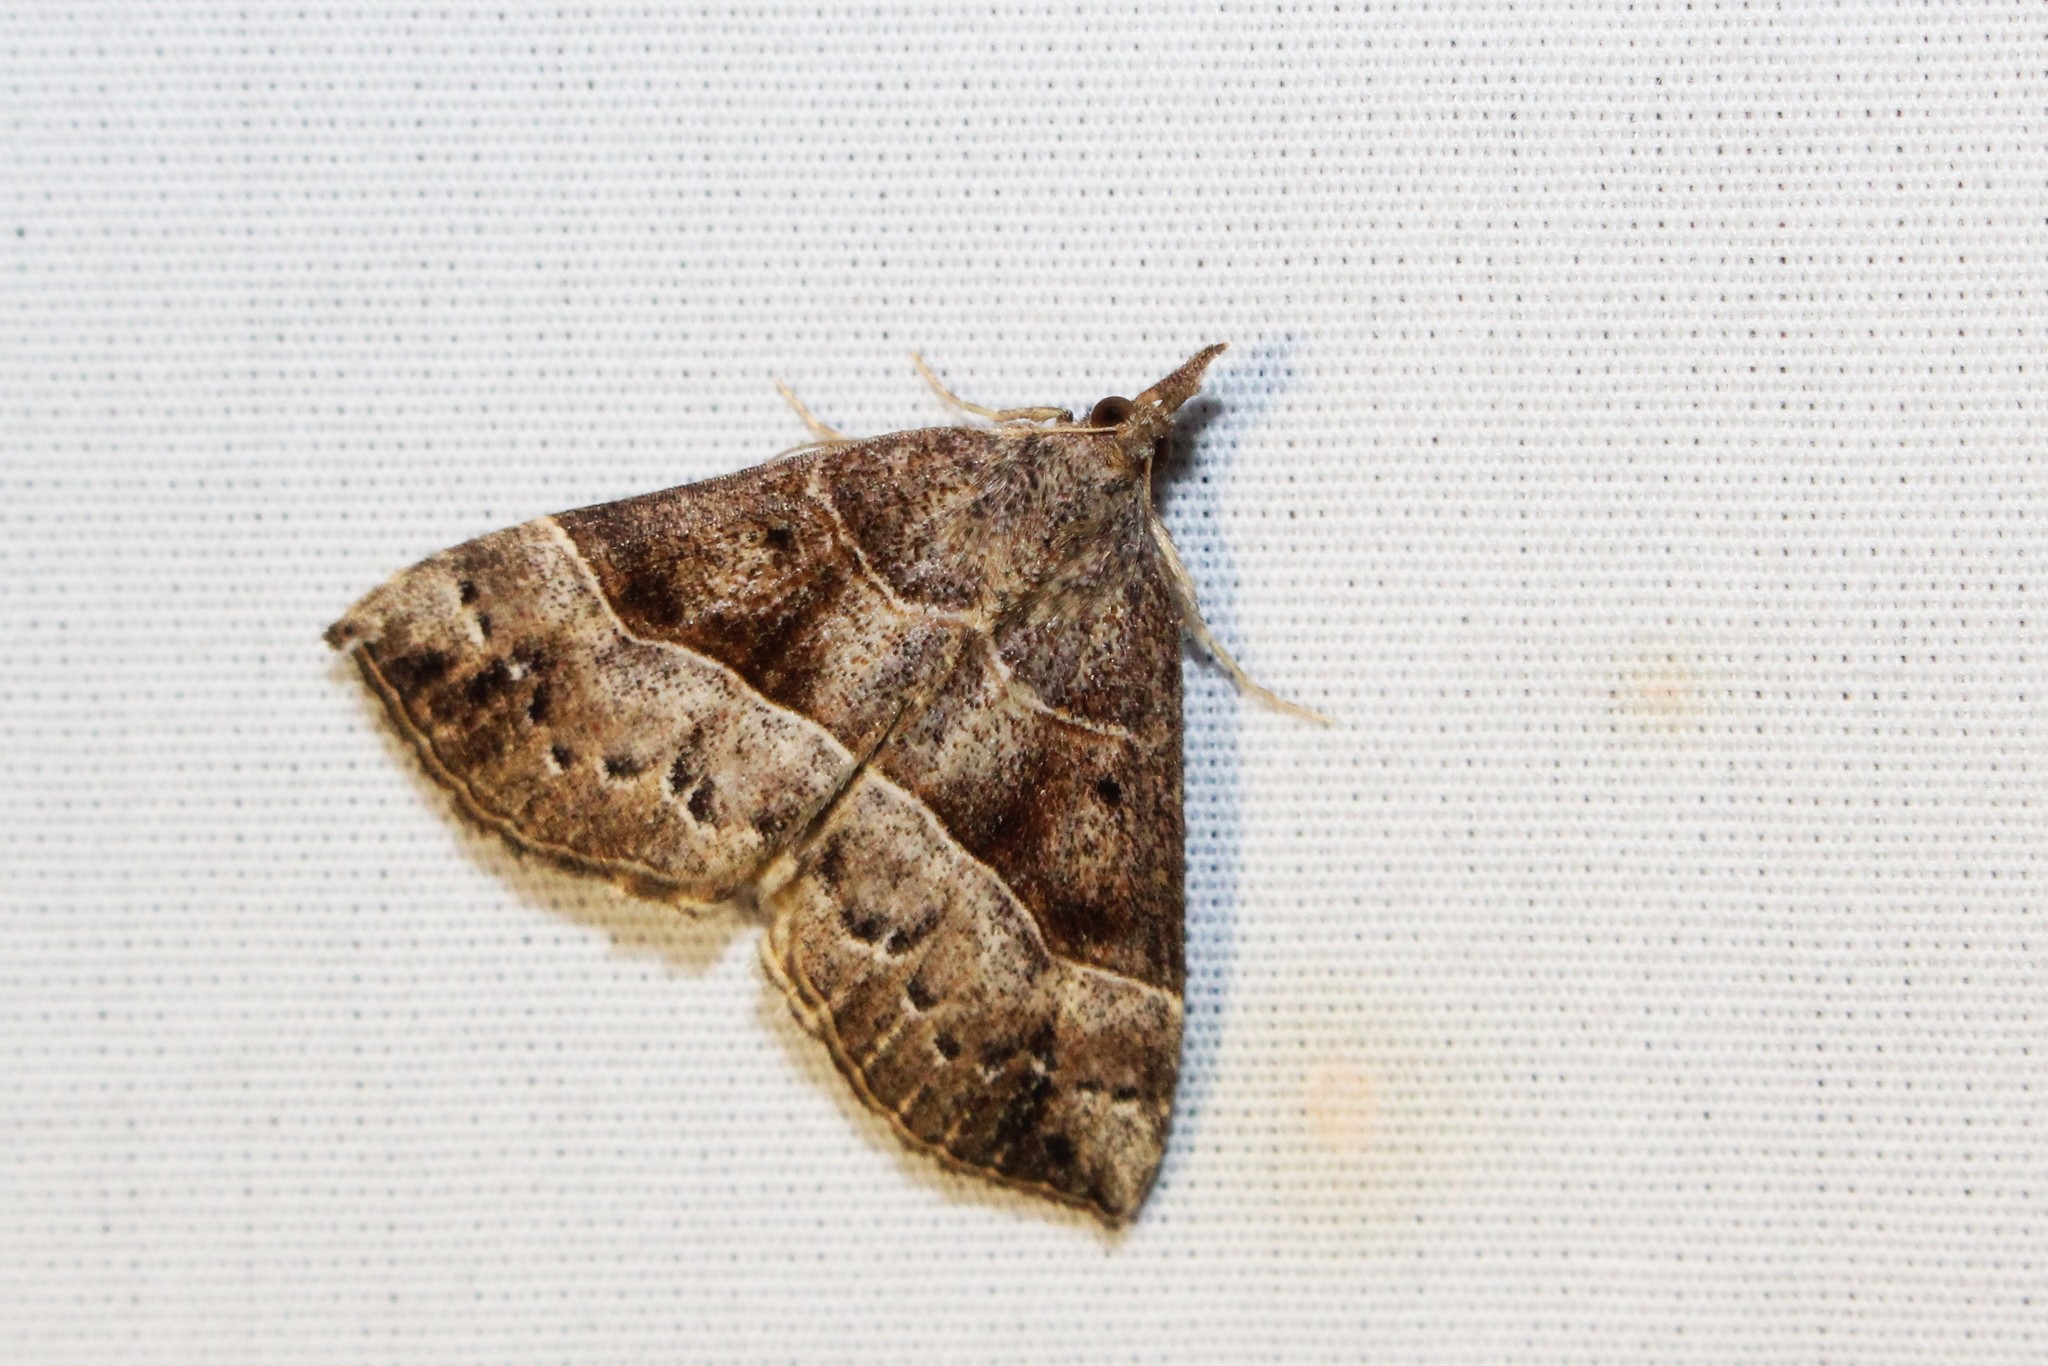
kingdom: Animalia
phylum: Arthropoda
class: Insecta
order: Lepidoptera
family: Erebidae
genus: Hypena
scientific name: Hypena deceptalis
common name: Deceptive snout
